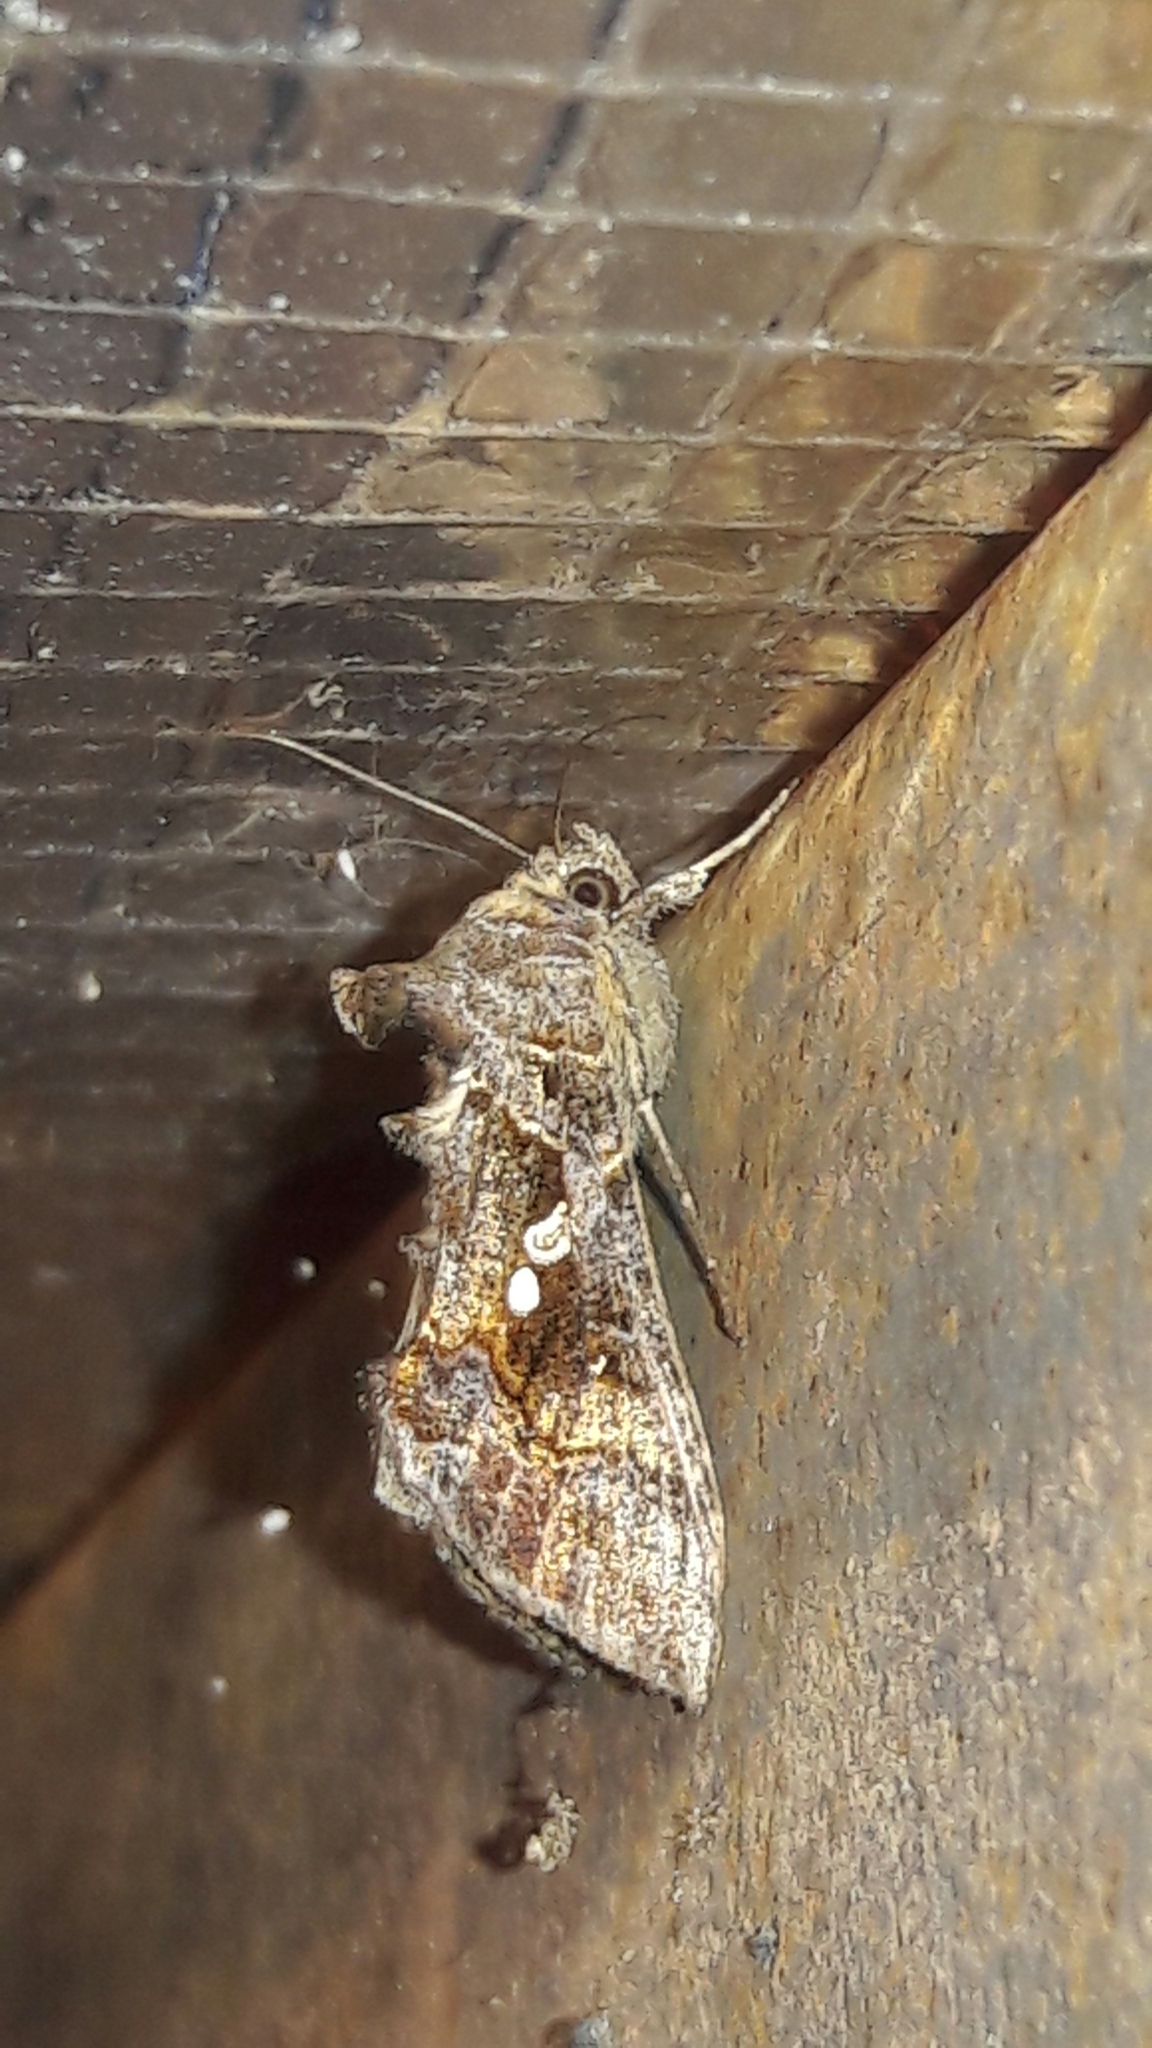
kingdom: Animalia
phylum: Arthropoda
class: Insecta
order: Lepidoptera
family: Noctuidae
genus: Chrysodeixis
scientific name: Chrysodeixis includens
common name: Cutworm moth
